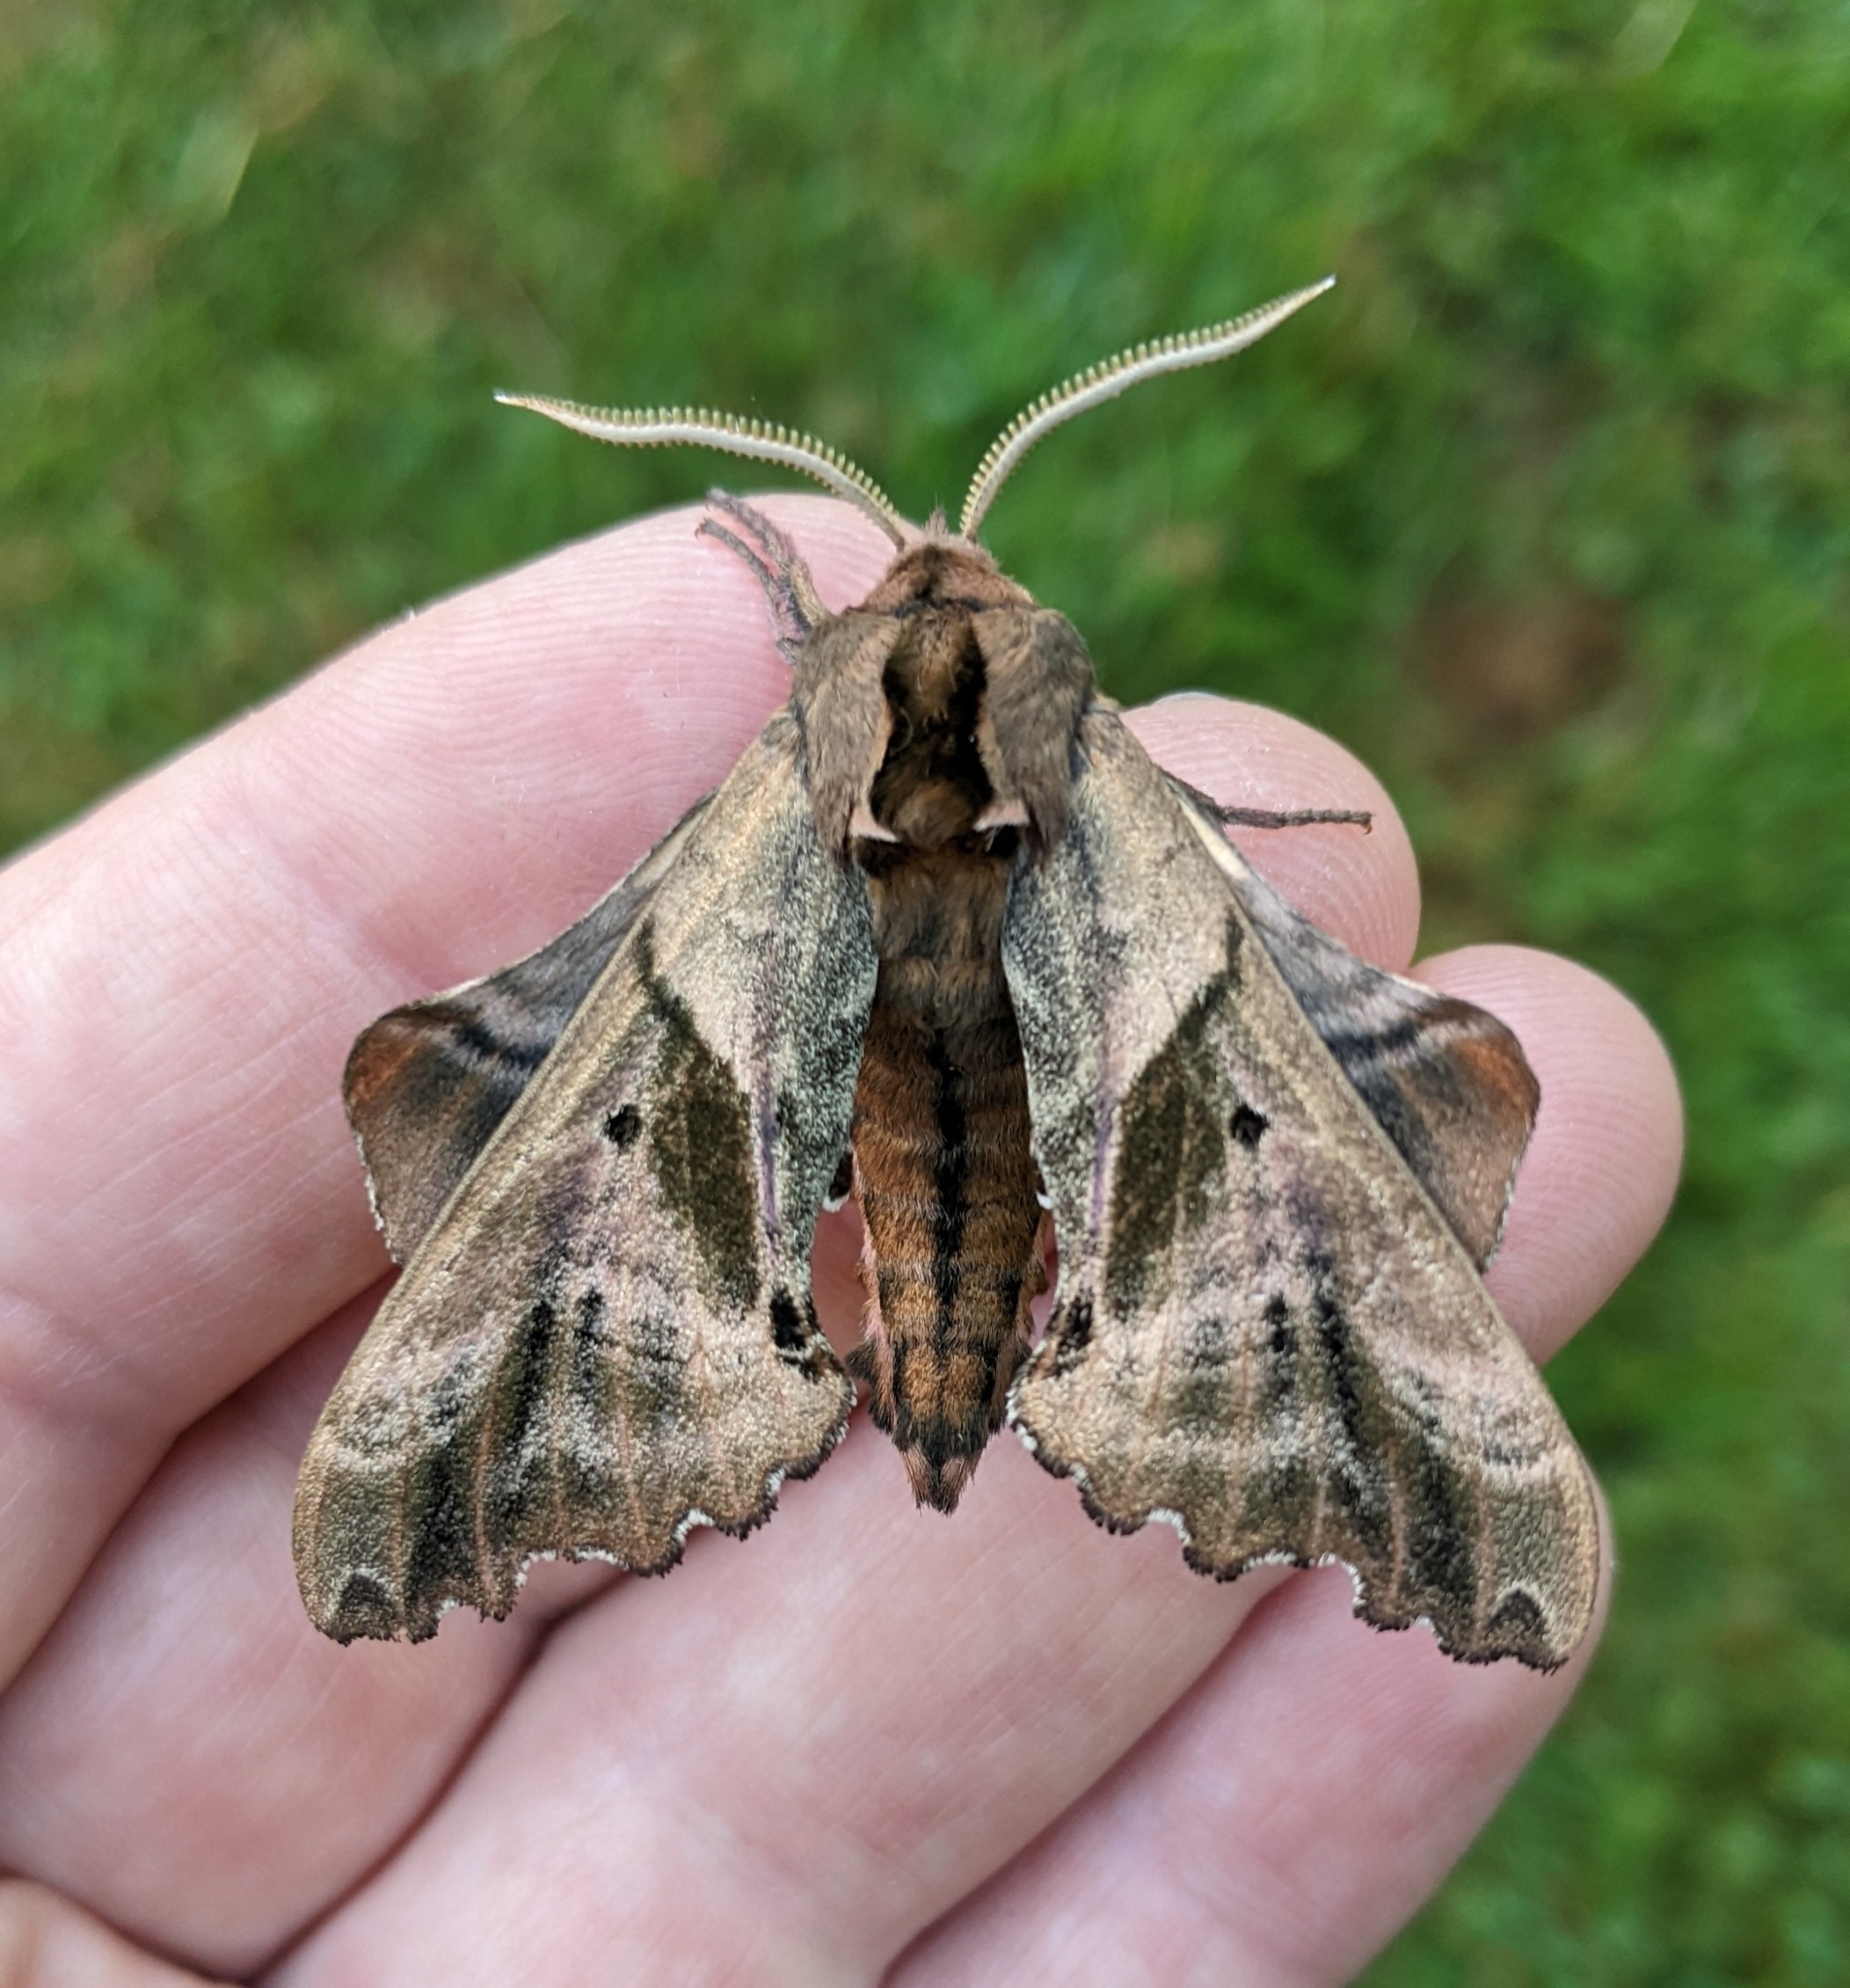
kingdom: Animalia
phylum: Arthropoda
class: Insecta
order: Lepidoptera
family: Sphingidae
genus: Paonias
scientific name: Paonias excaecata
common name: Blind-eyed sphinx
